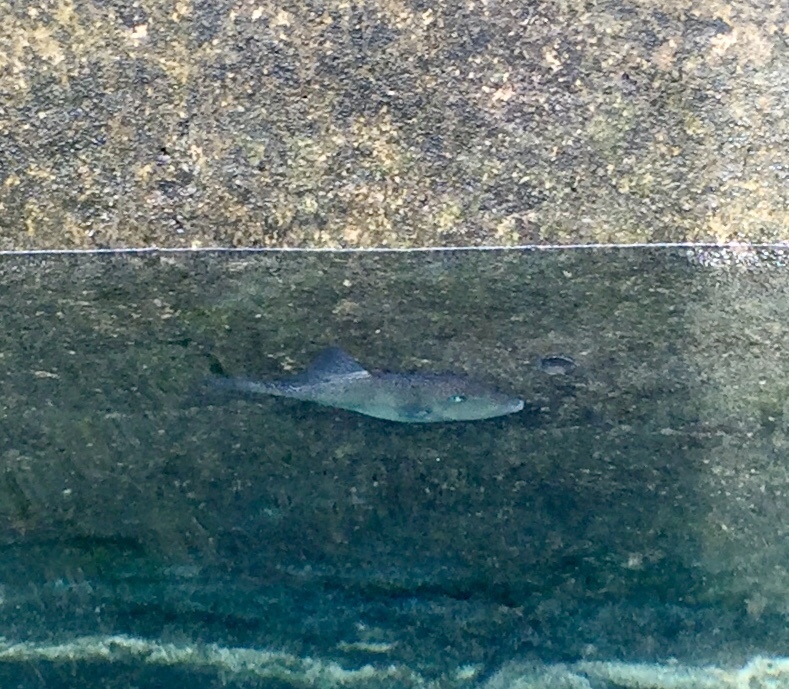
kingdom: Animalia
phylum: Chordata
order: Tetraodontiformes
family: Balistidae
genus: Balistes
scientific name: Balistes capriscus
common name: Grey triggerfish
